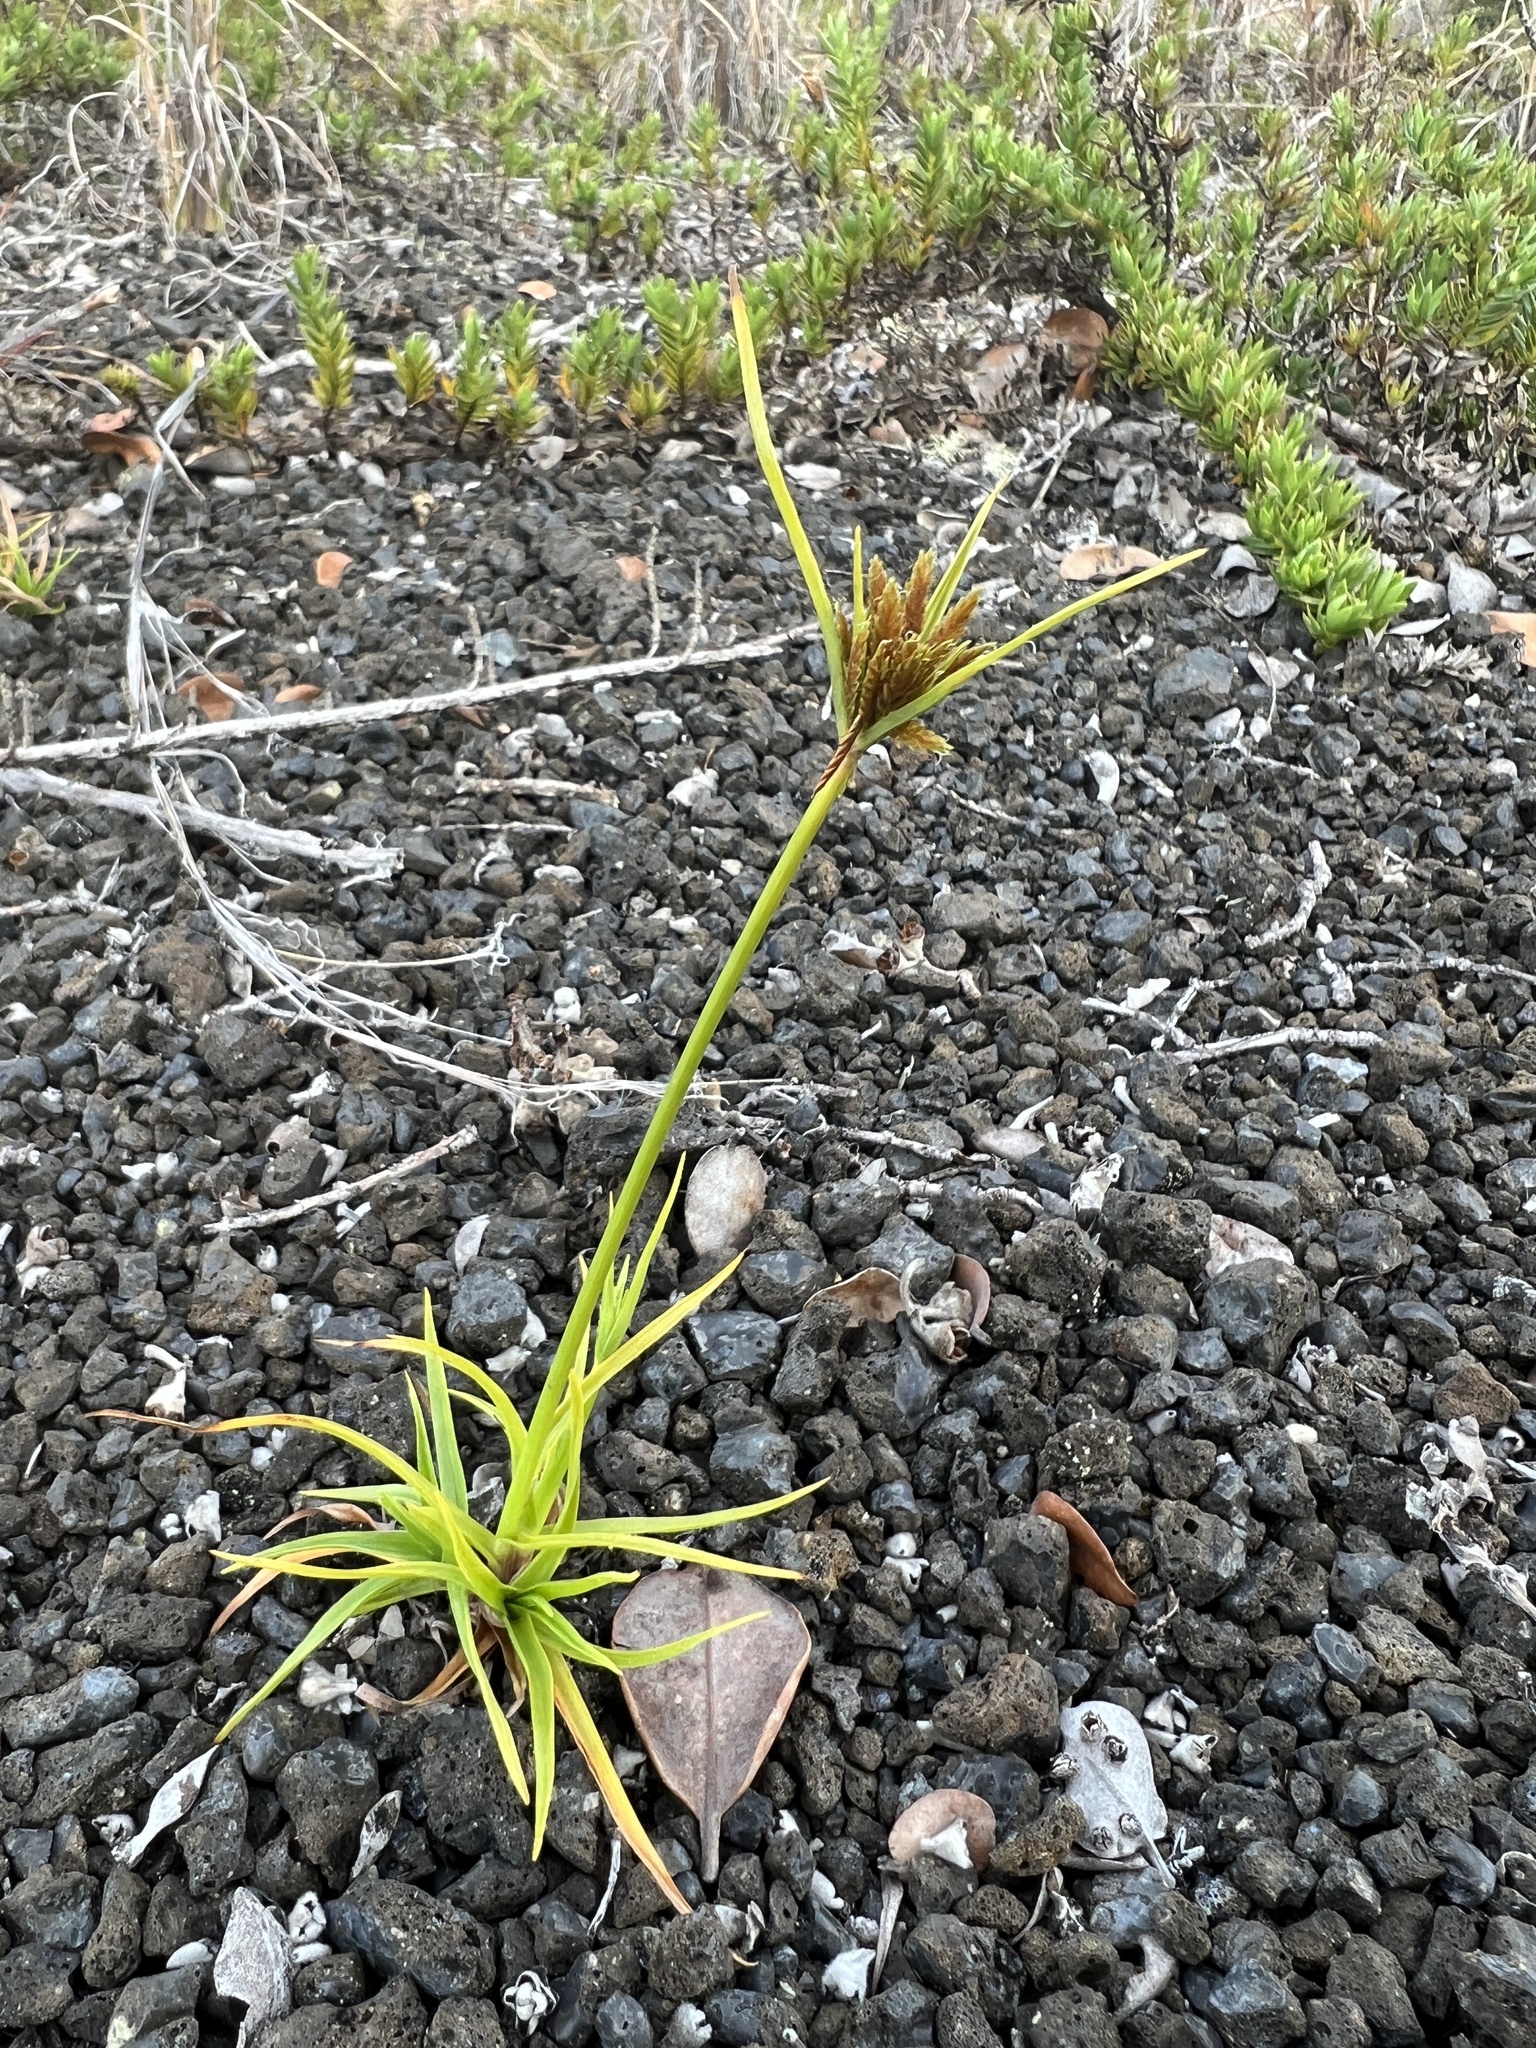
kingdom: Plantae
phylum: Tracheophyta
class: Liliopsida
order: Poales
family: Cyperaceae
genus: Cyperus
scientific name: Cyperus polystachyos
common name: Bunchy flat sedge
